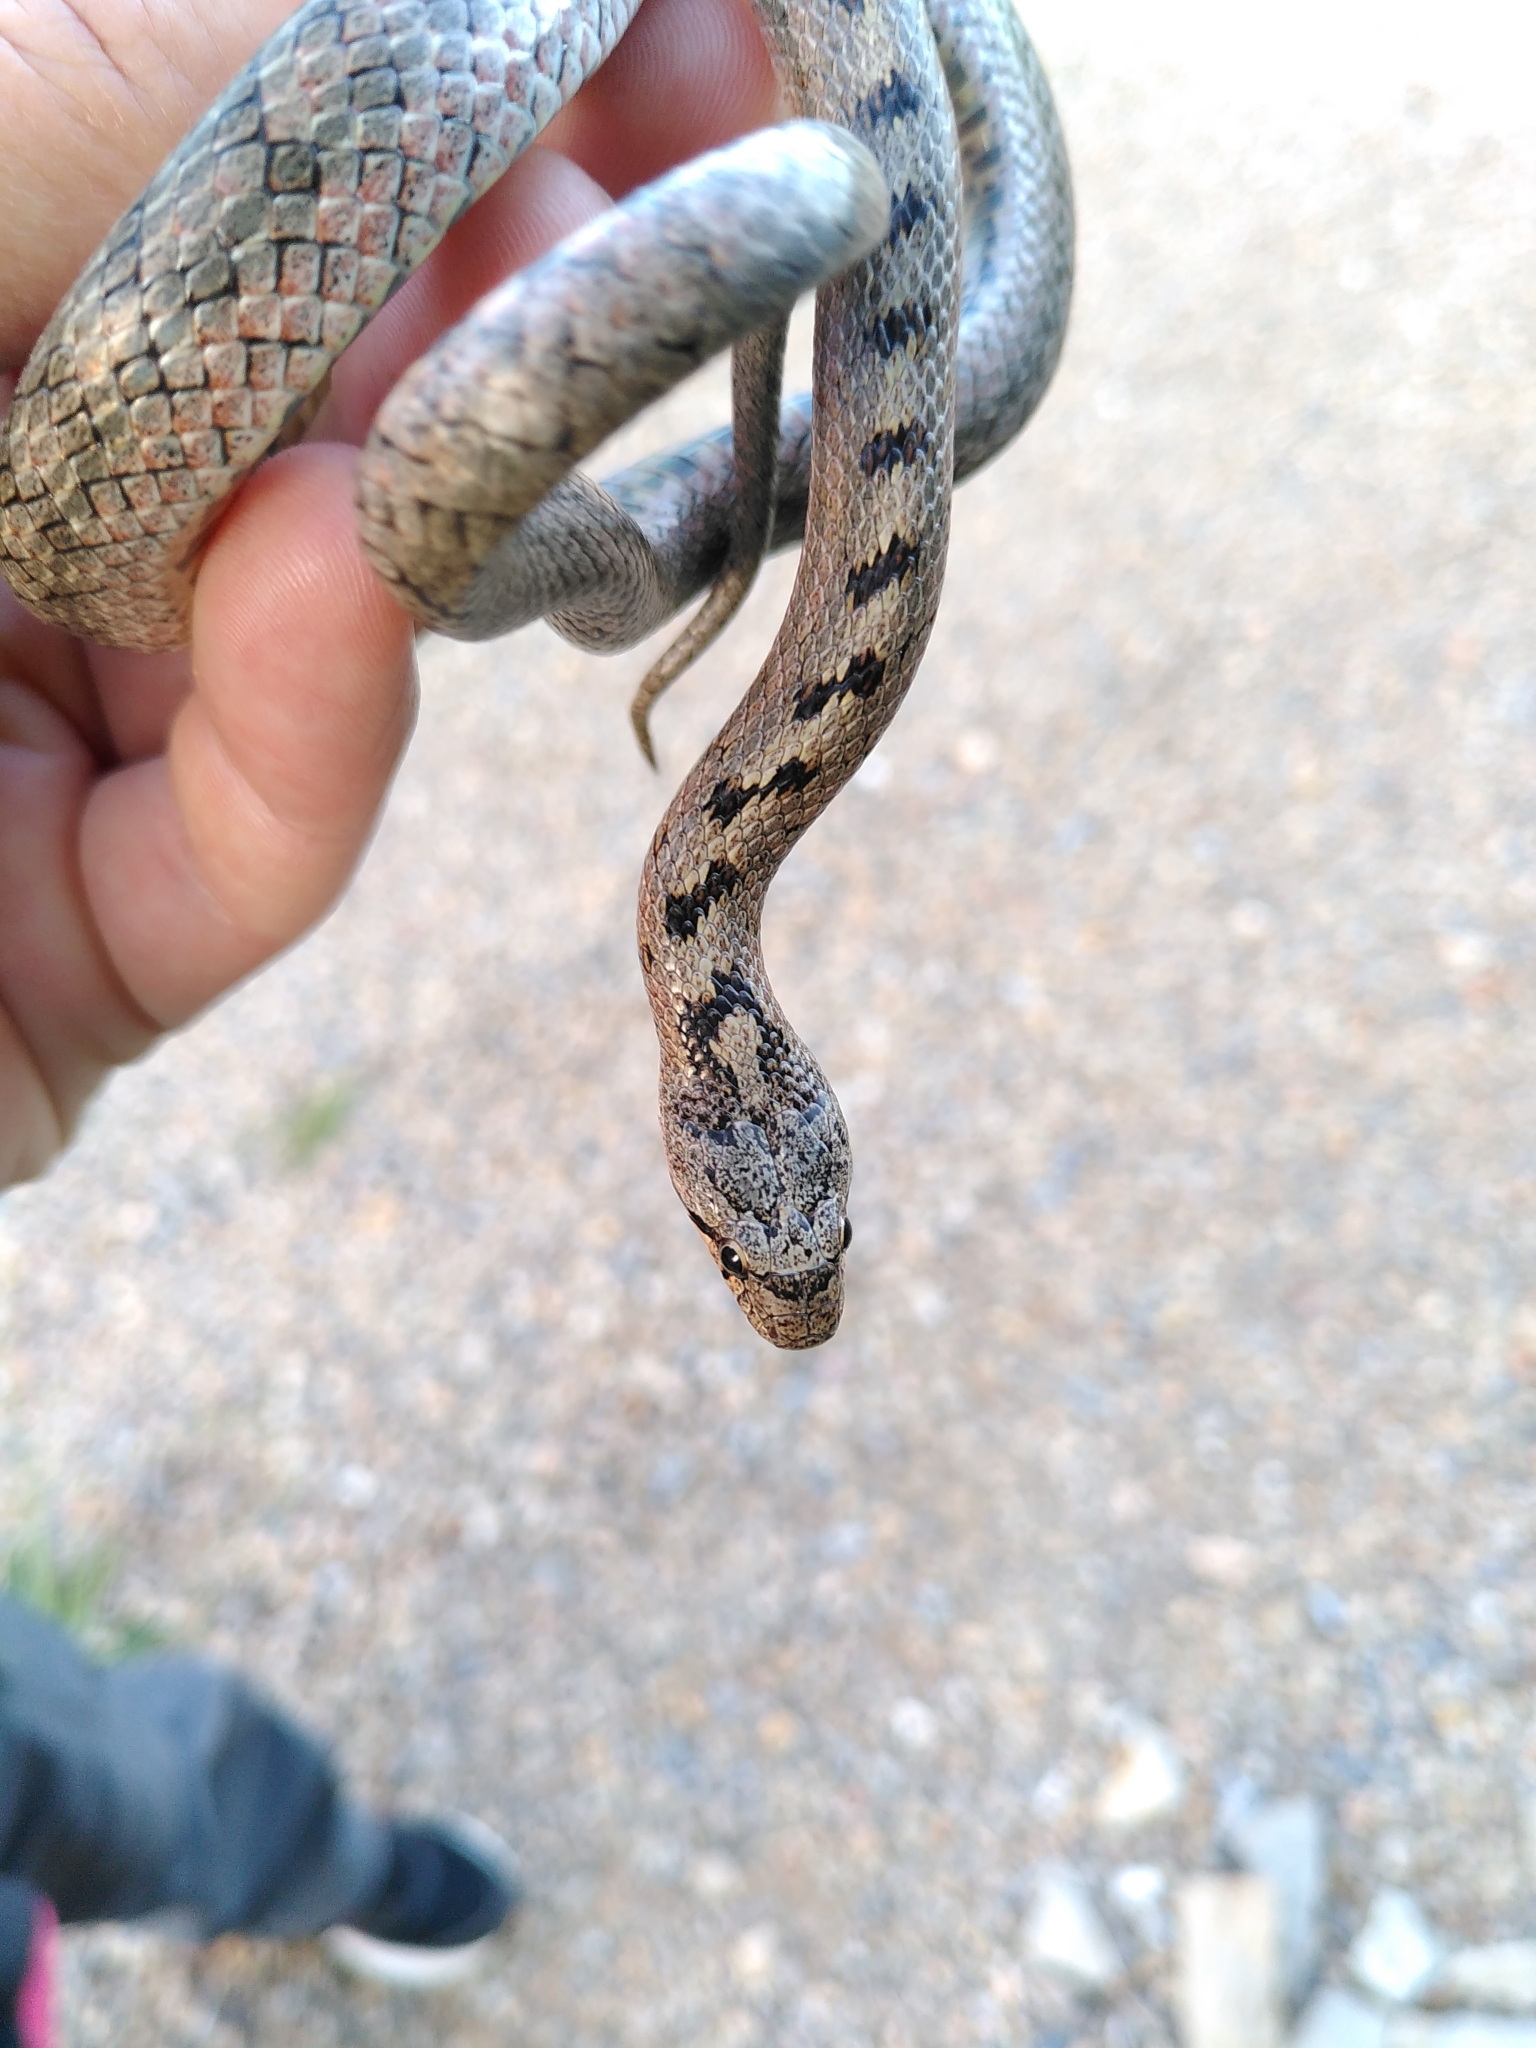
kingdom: Animalia
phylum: Chordata
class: Squamata
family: Colubridae
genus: Coronella
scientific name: Coronella girondica
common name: Southern smooth snake
